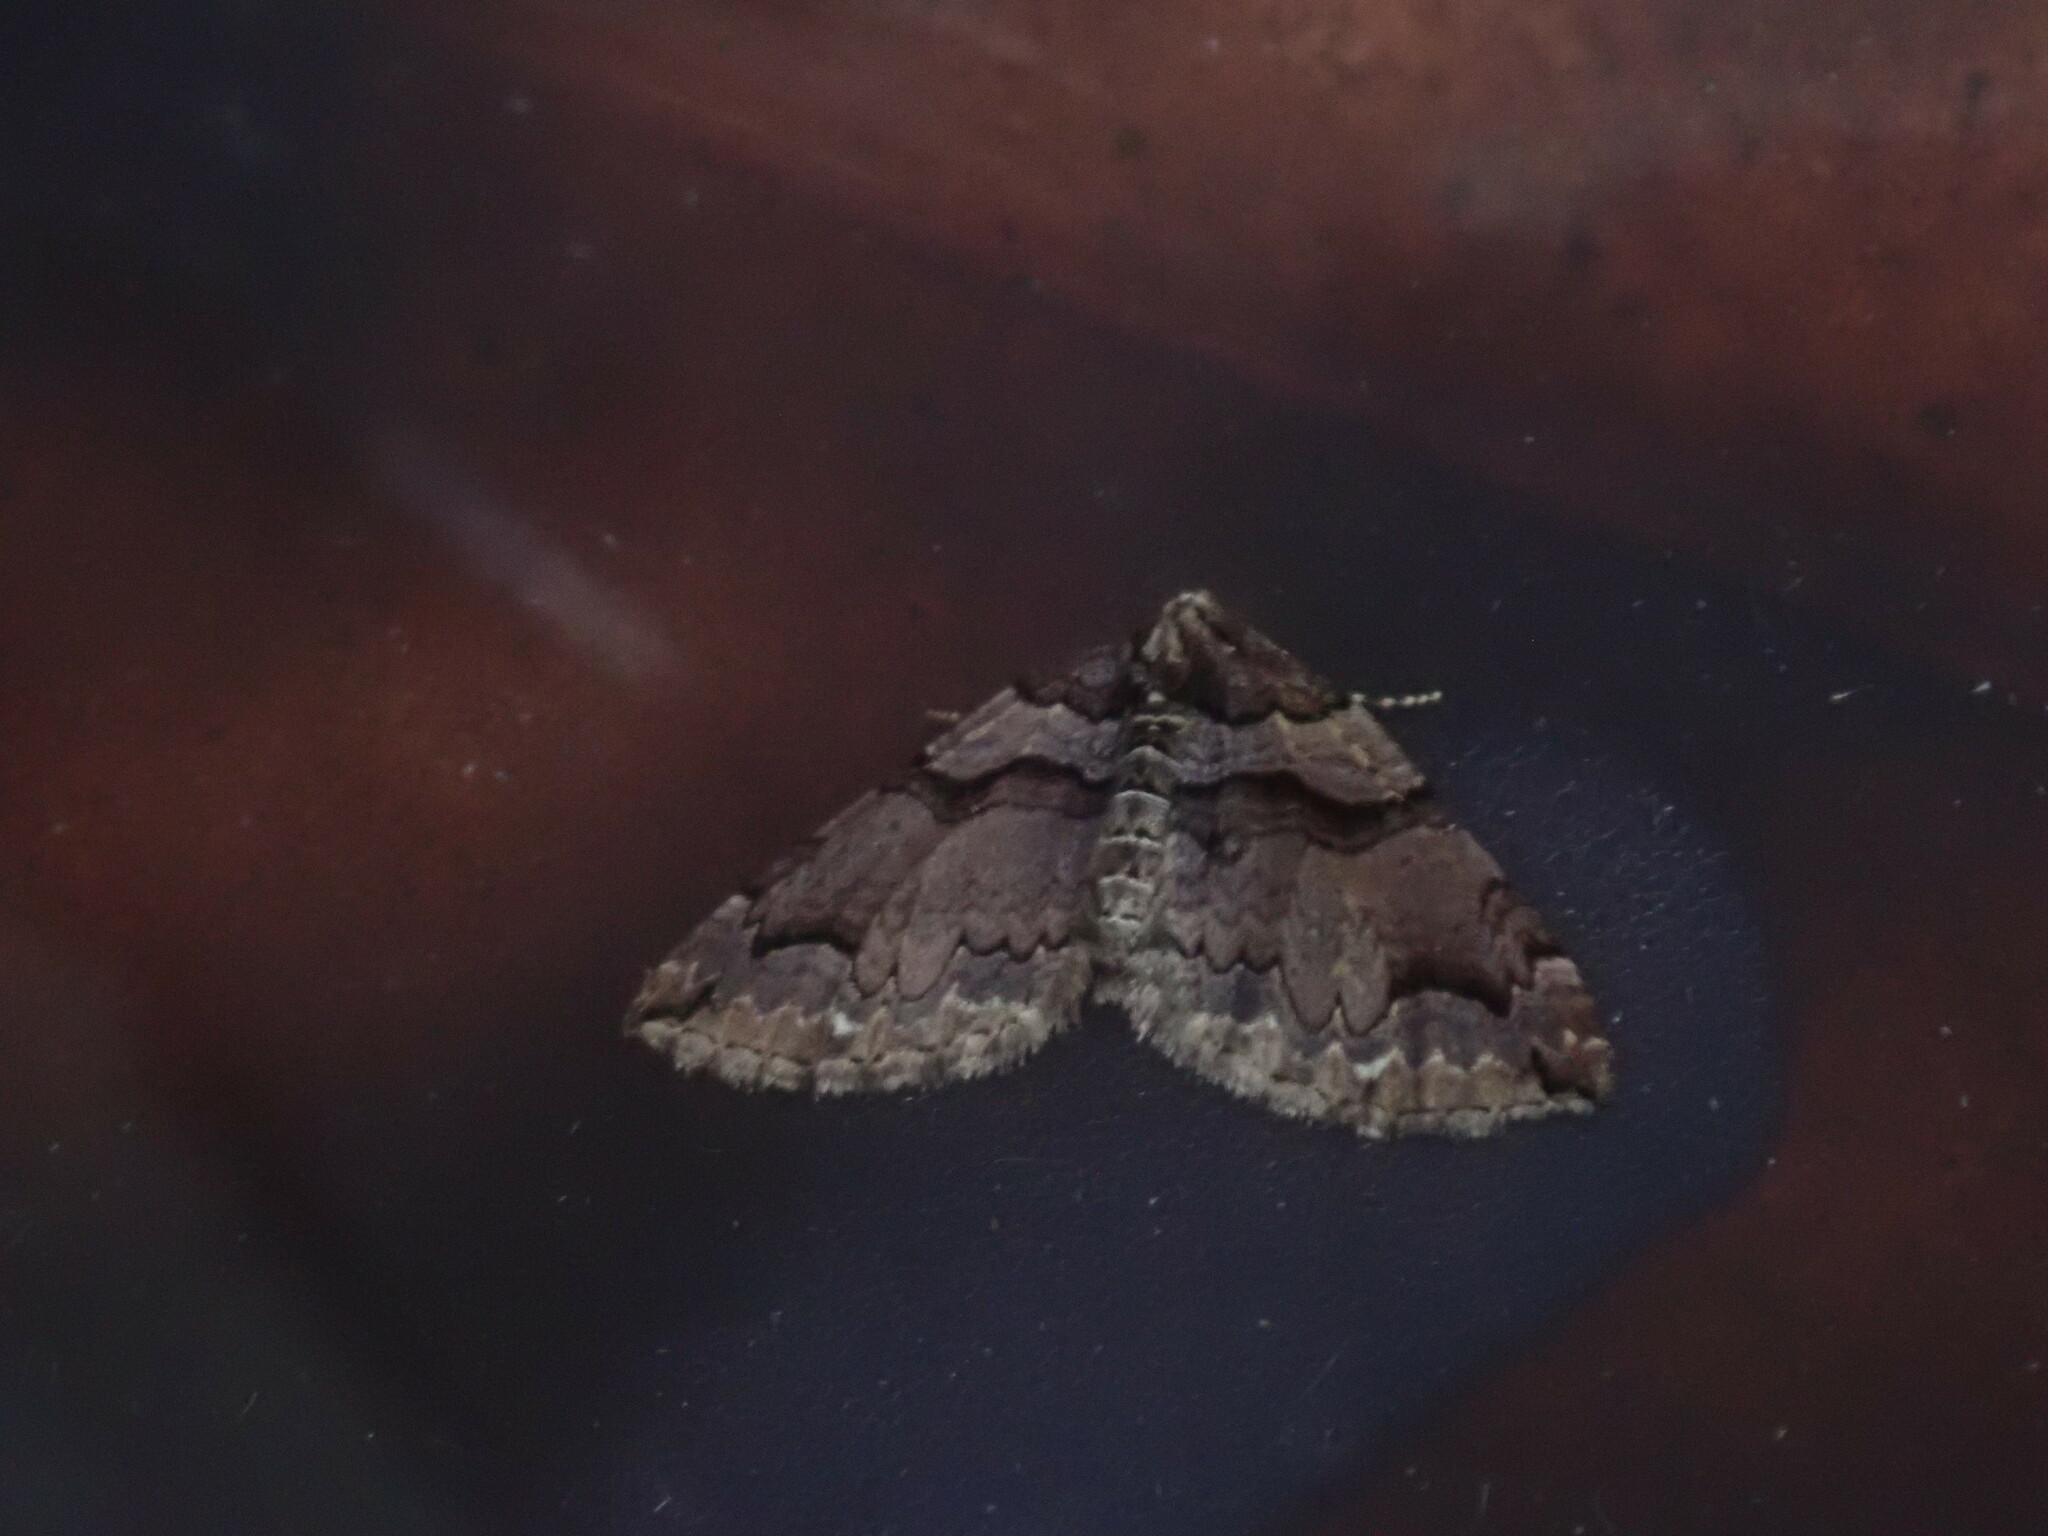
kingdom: Animalia
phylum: Arthropoda
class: Insecta
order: Lepidoptera
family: Geometridae
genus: Anticlea
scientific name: Anticlea vasiliata
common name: Variable carpet
